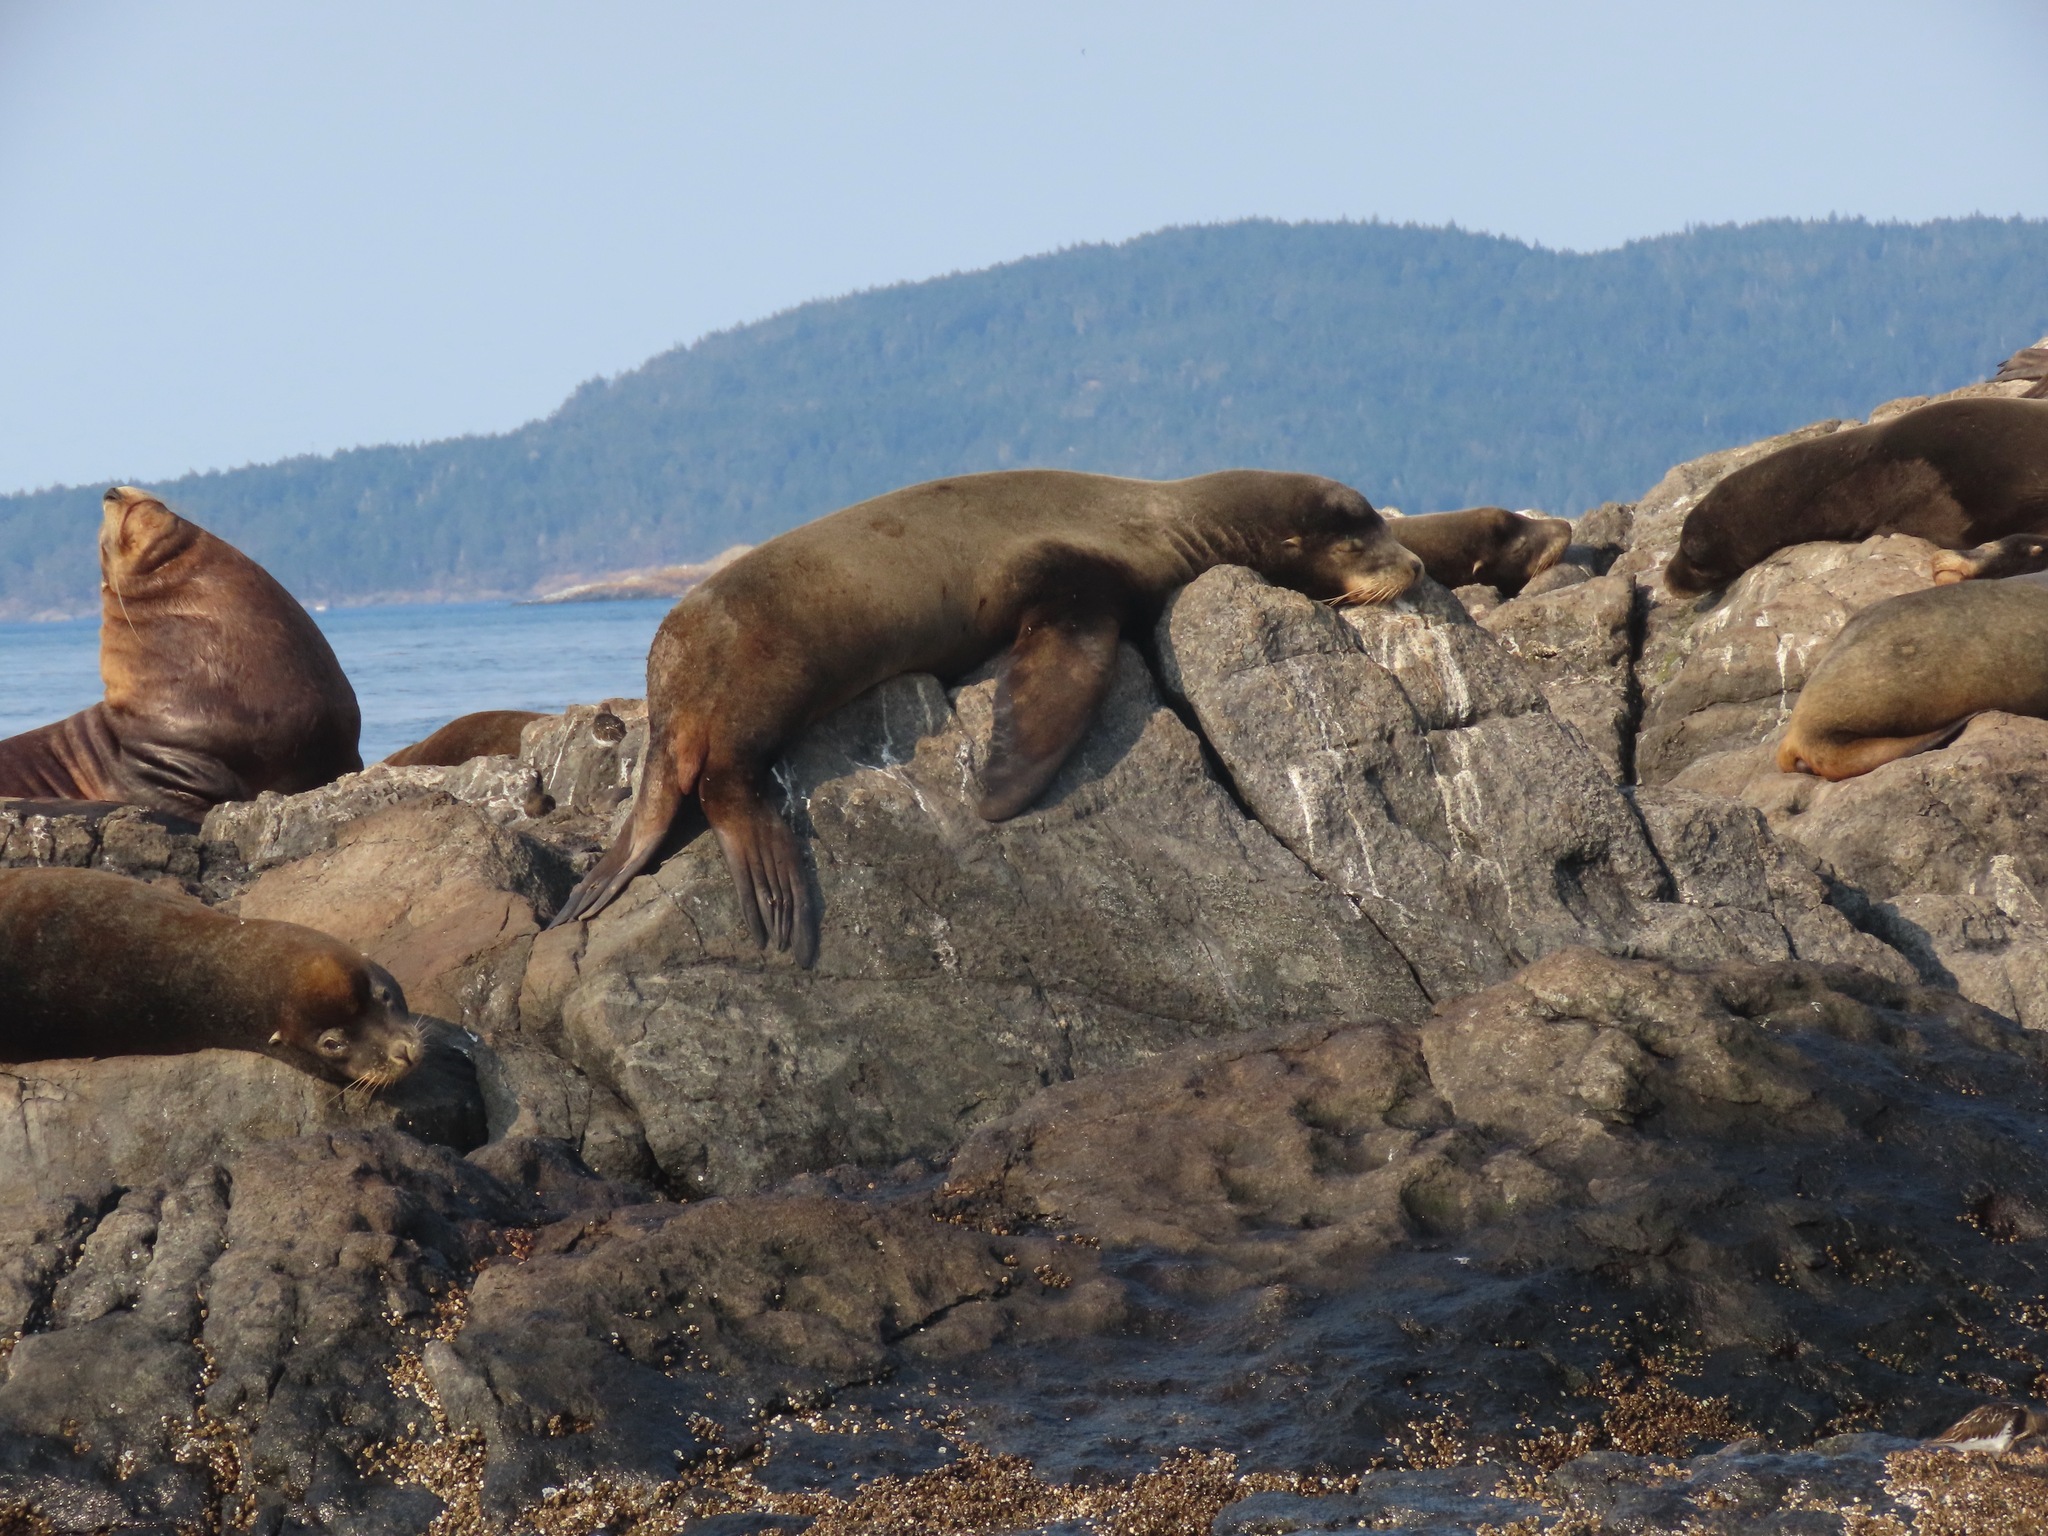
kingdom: Animalia
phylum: Chordata
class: Mammalia
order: Carnivora
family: Otariidae
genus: Zalophus
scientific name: Zalophus californianus
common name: California sea lion
